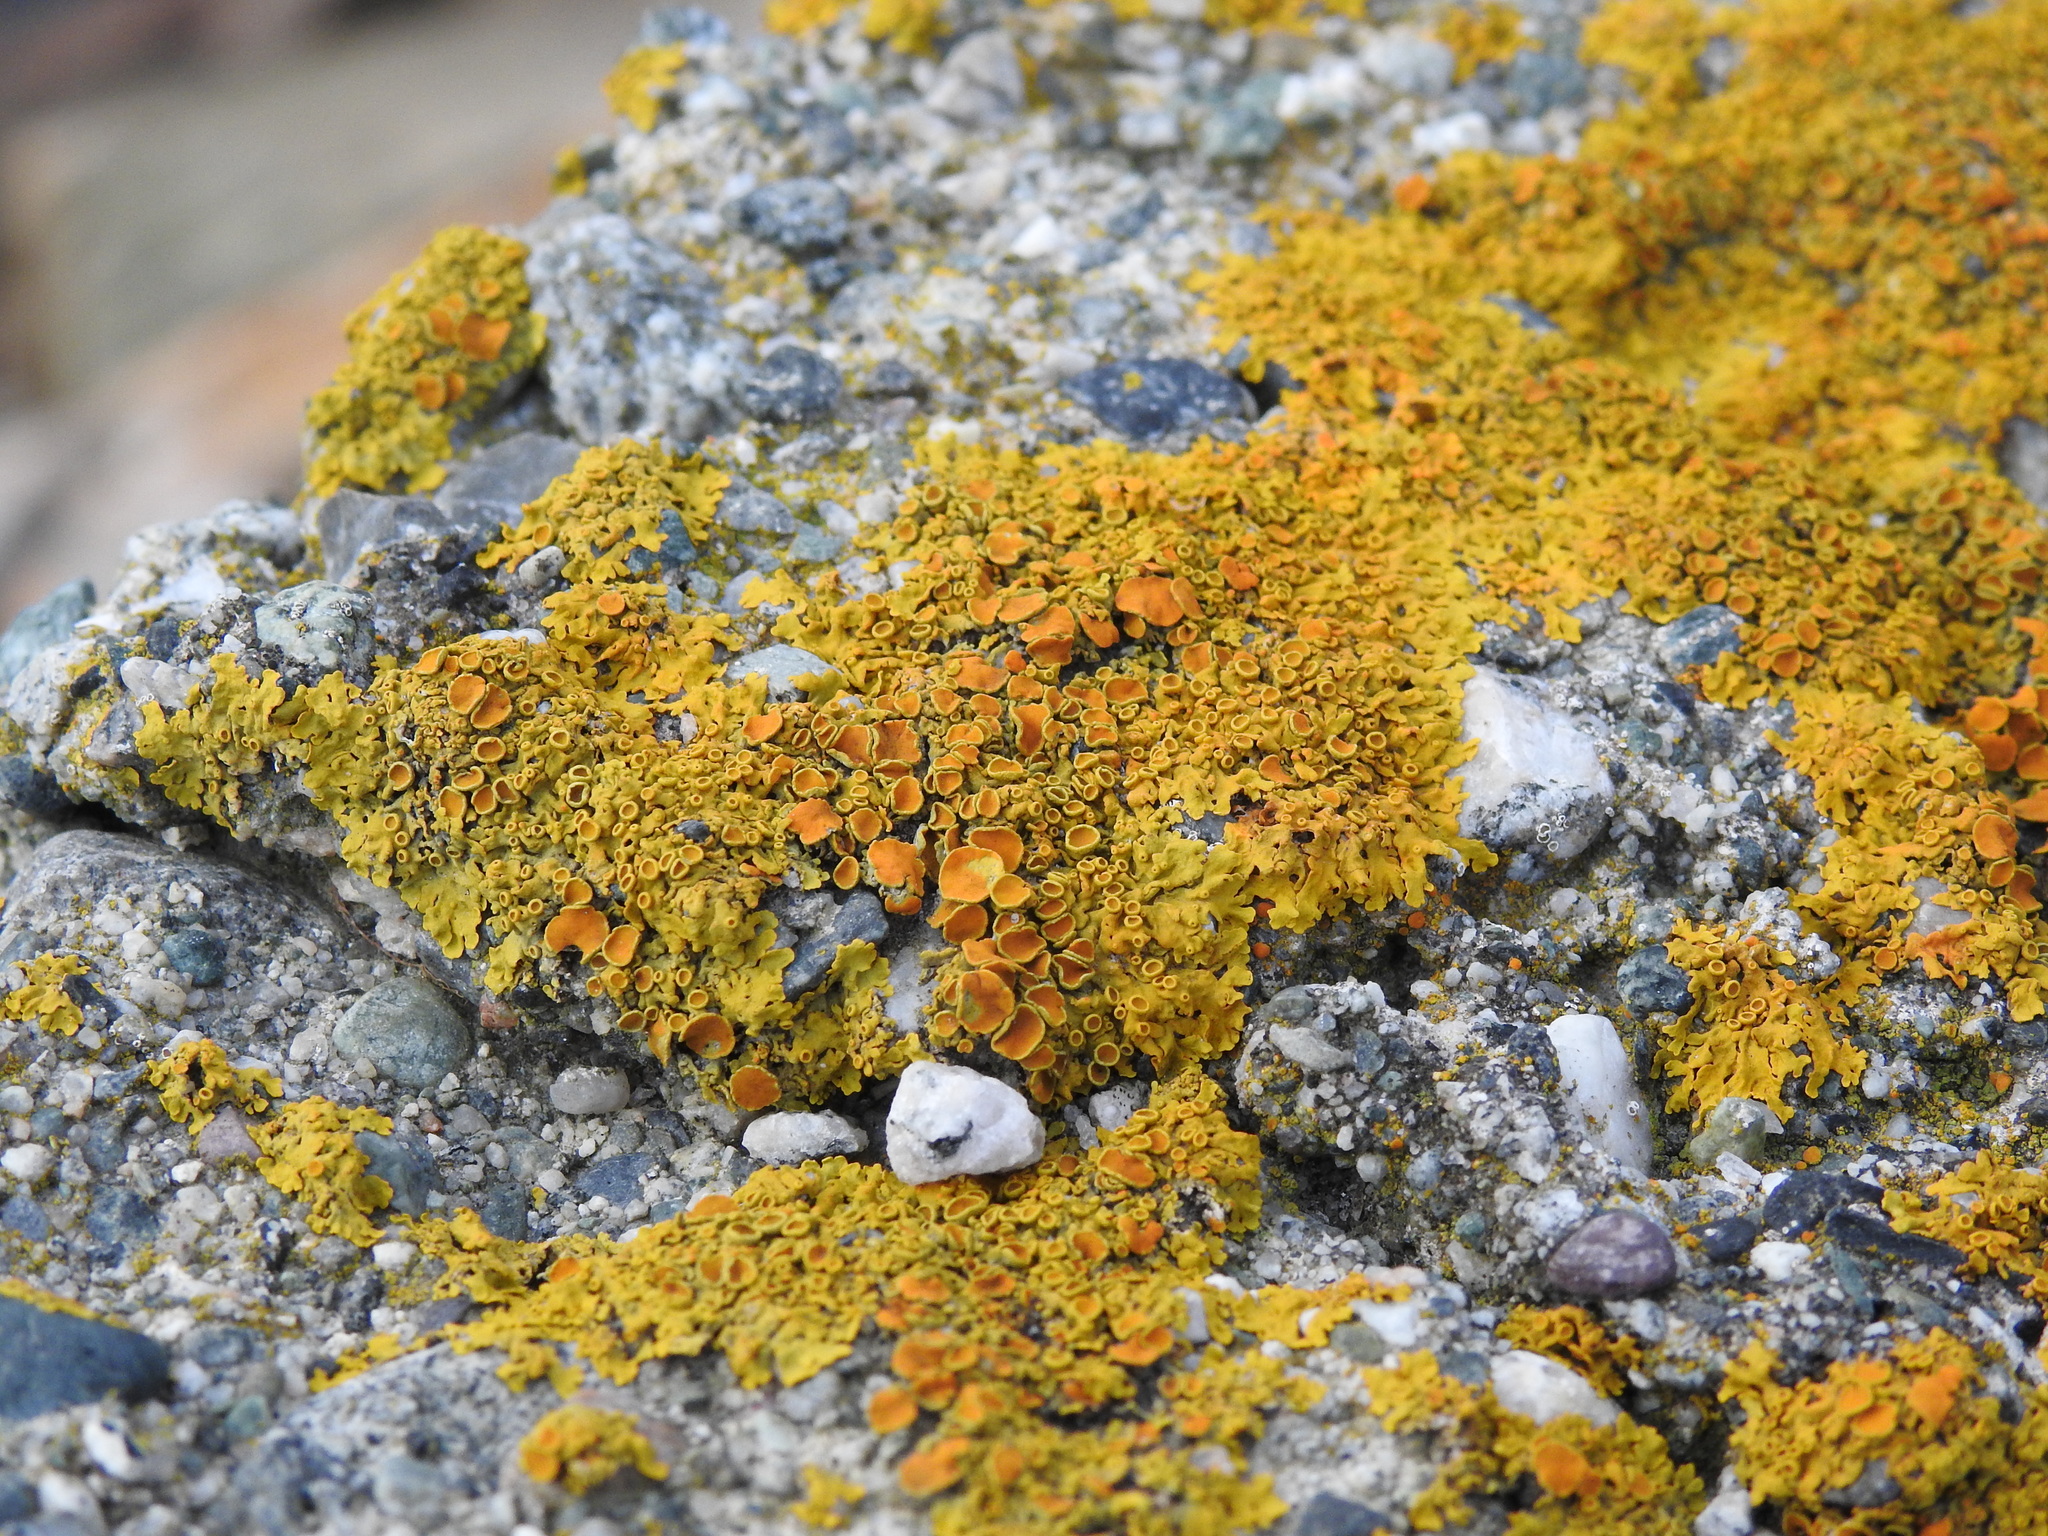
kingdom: Fungi
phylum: Ascomycota
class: Lecanoromycetes
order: Teloschistales
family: Teloschistaceae
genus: Xanthoria
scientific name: Xanthoria parietina
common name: Common orange lichen
